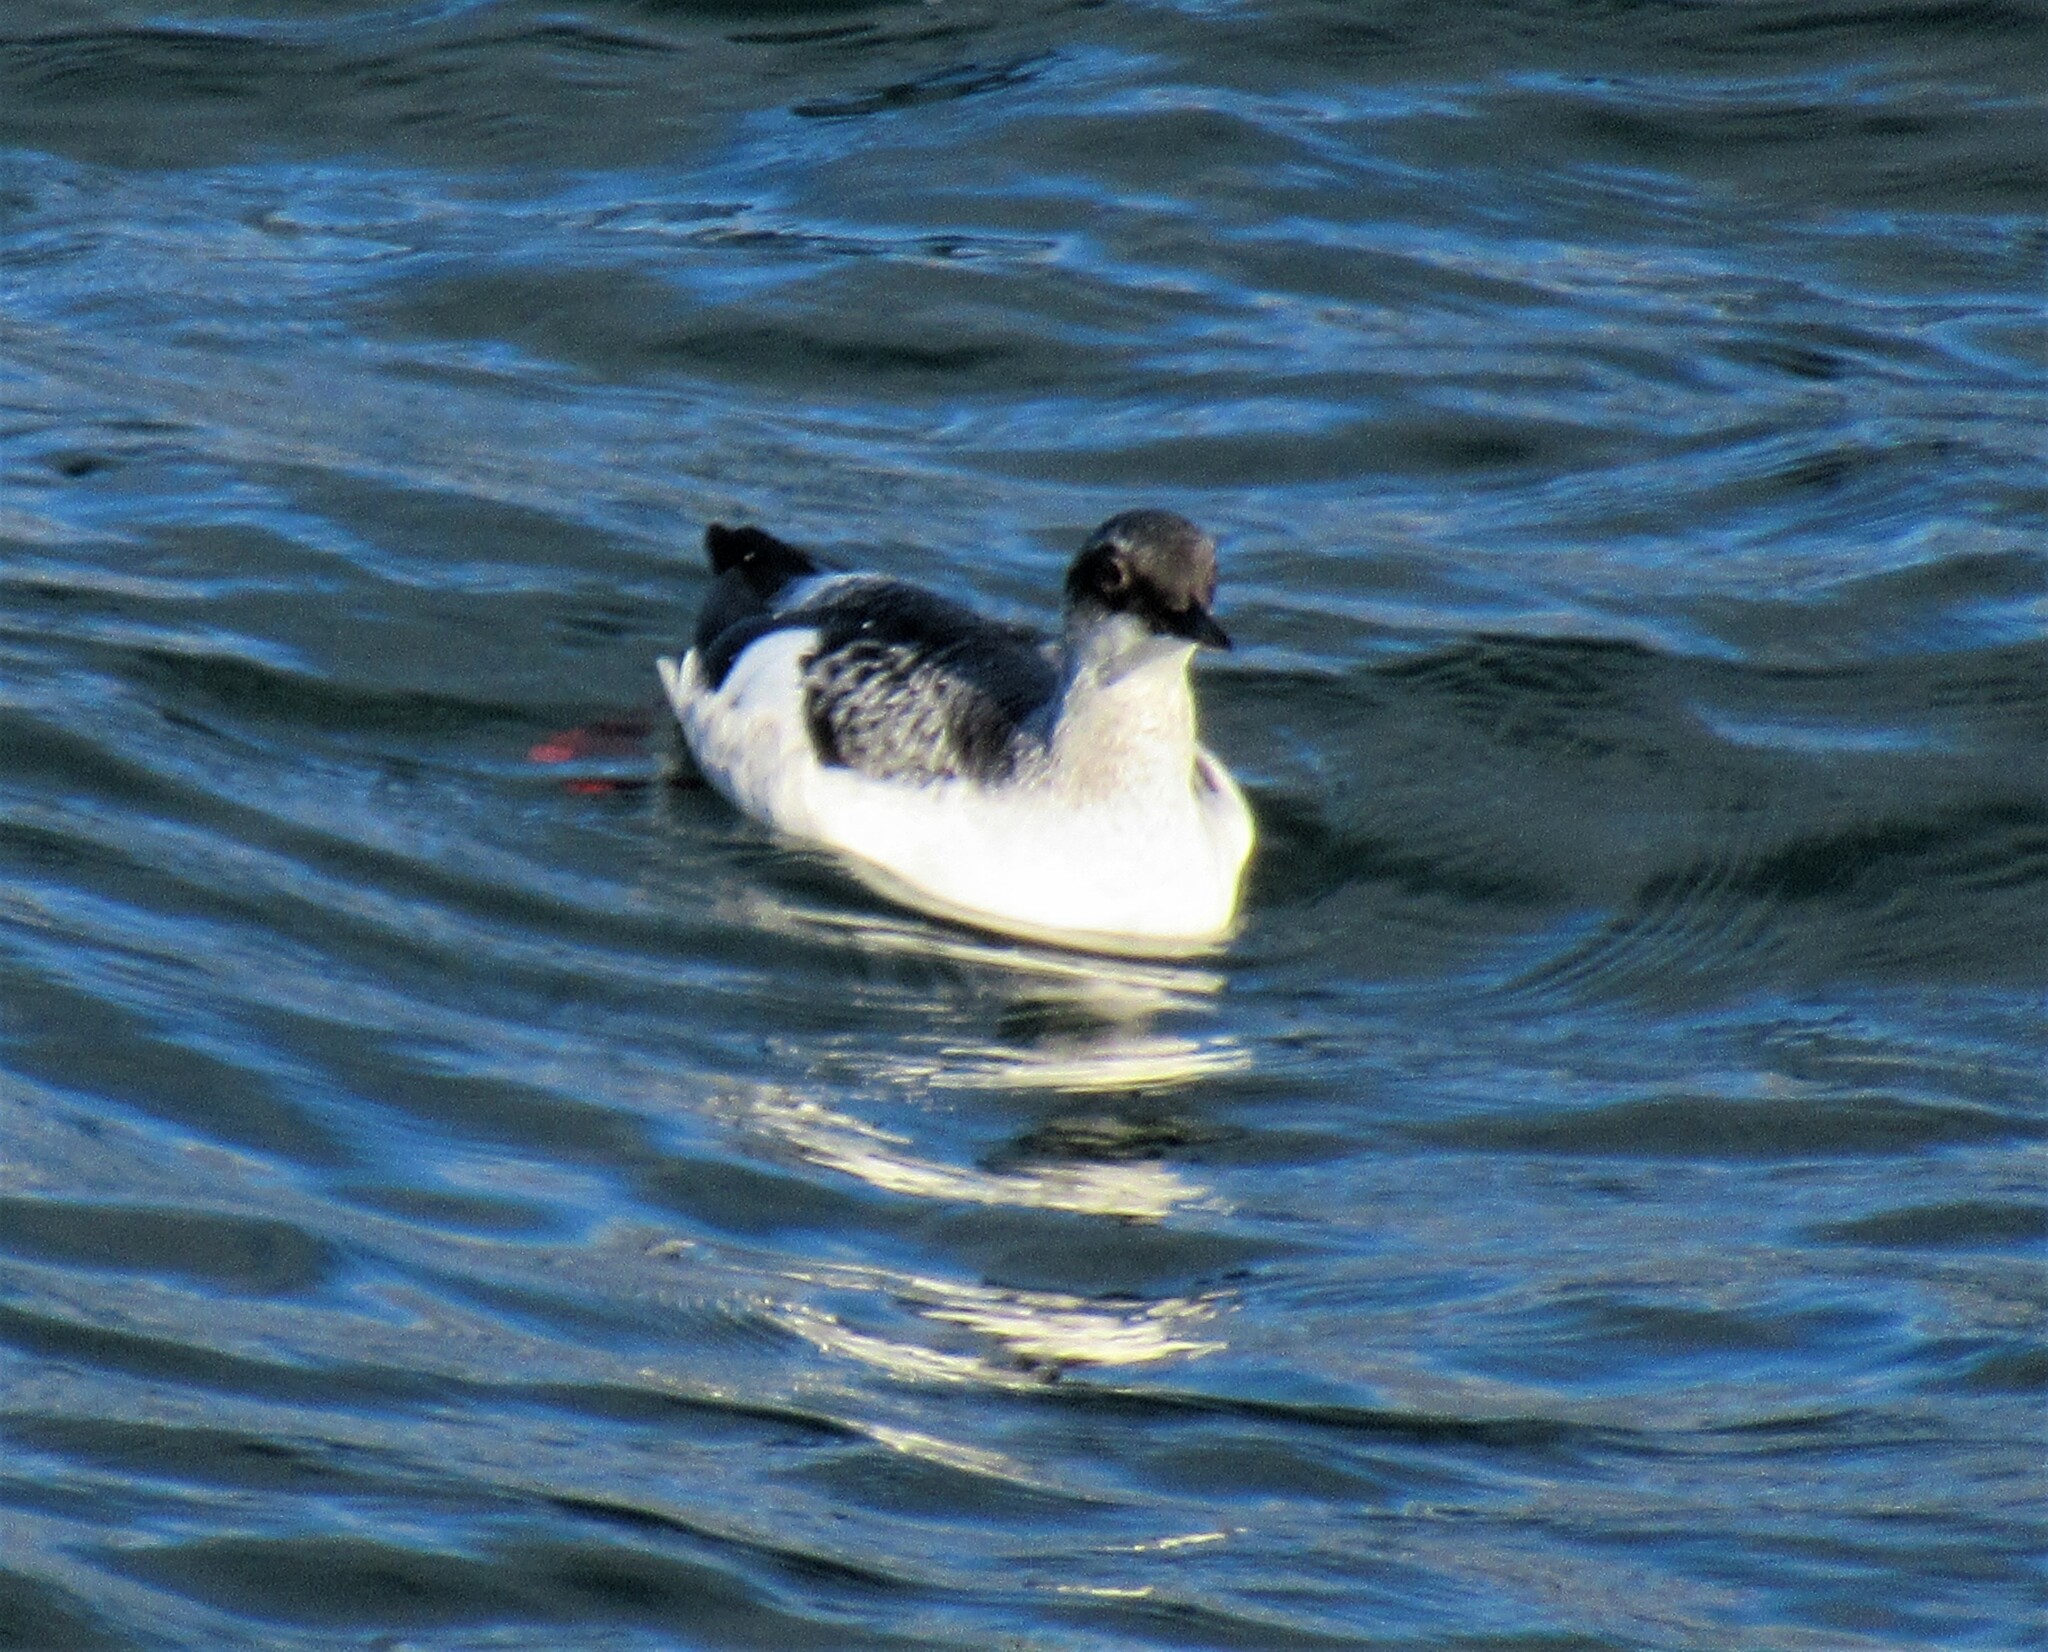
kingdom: Animalia
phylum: Chordata
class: Aves
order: Charadriiformes
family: Alcidae
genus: Cepphus
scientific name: Cepphus columba
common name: Pigeon guillemot
